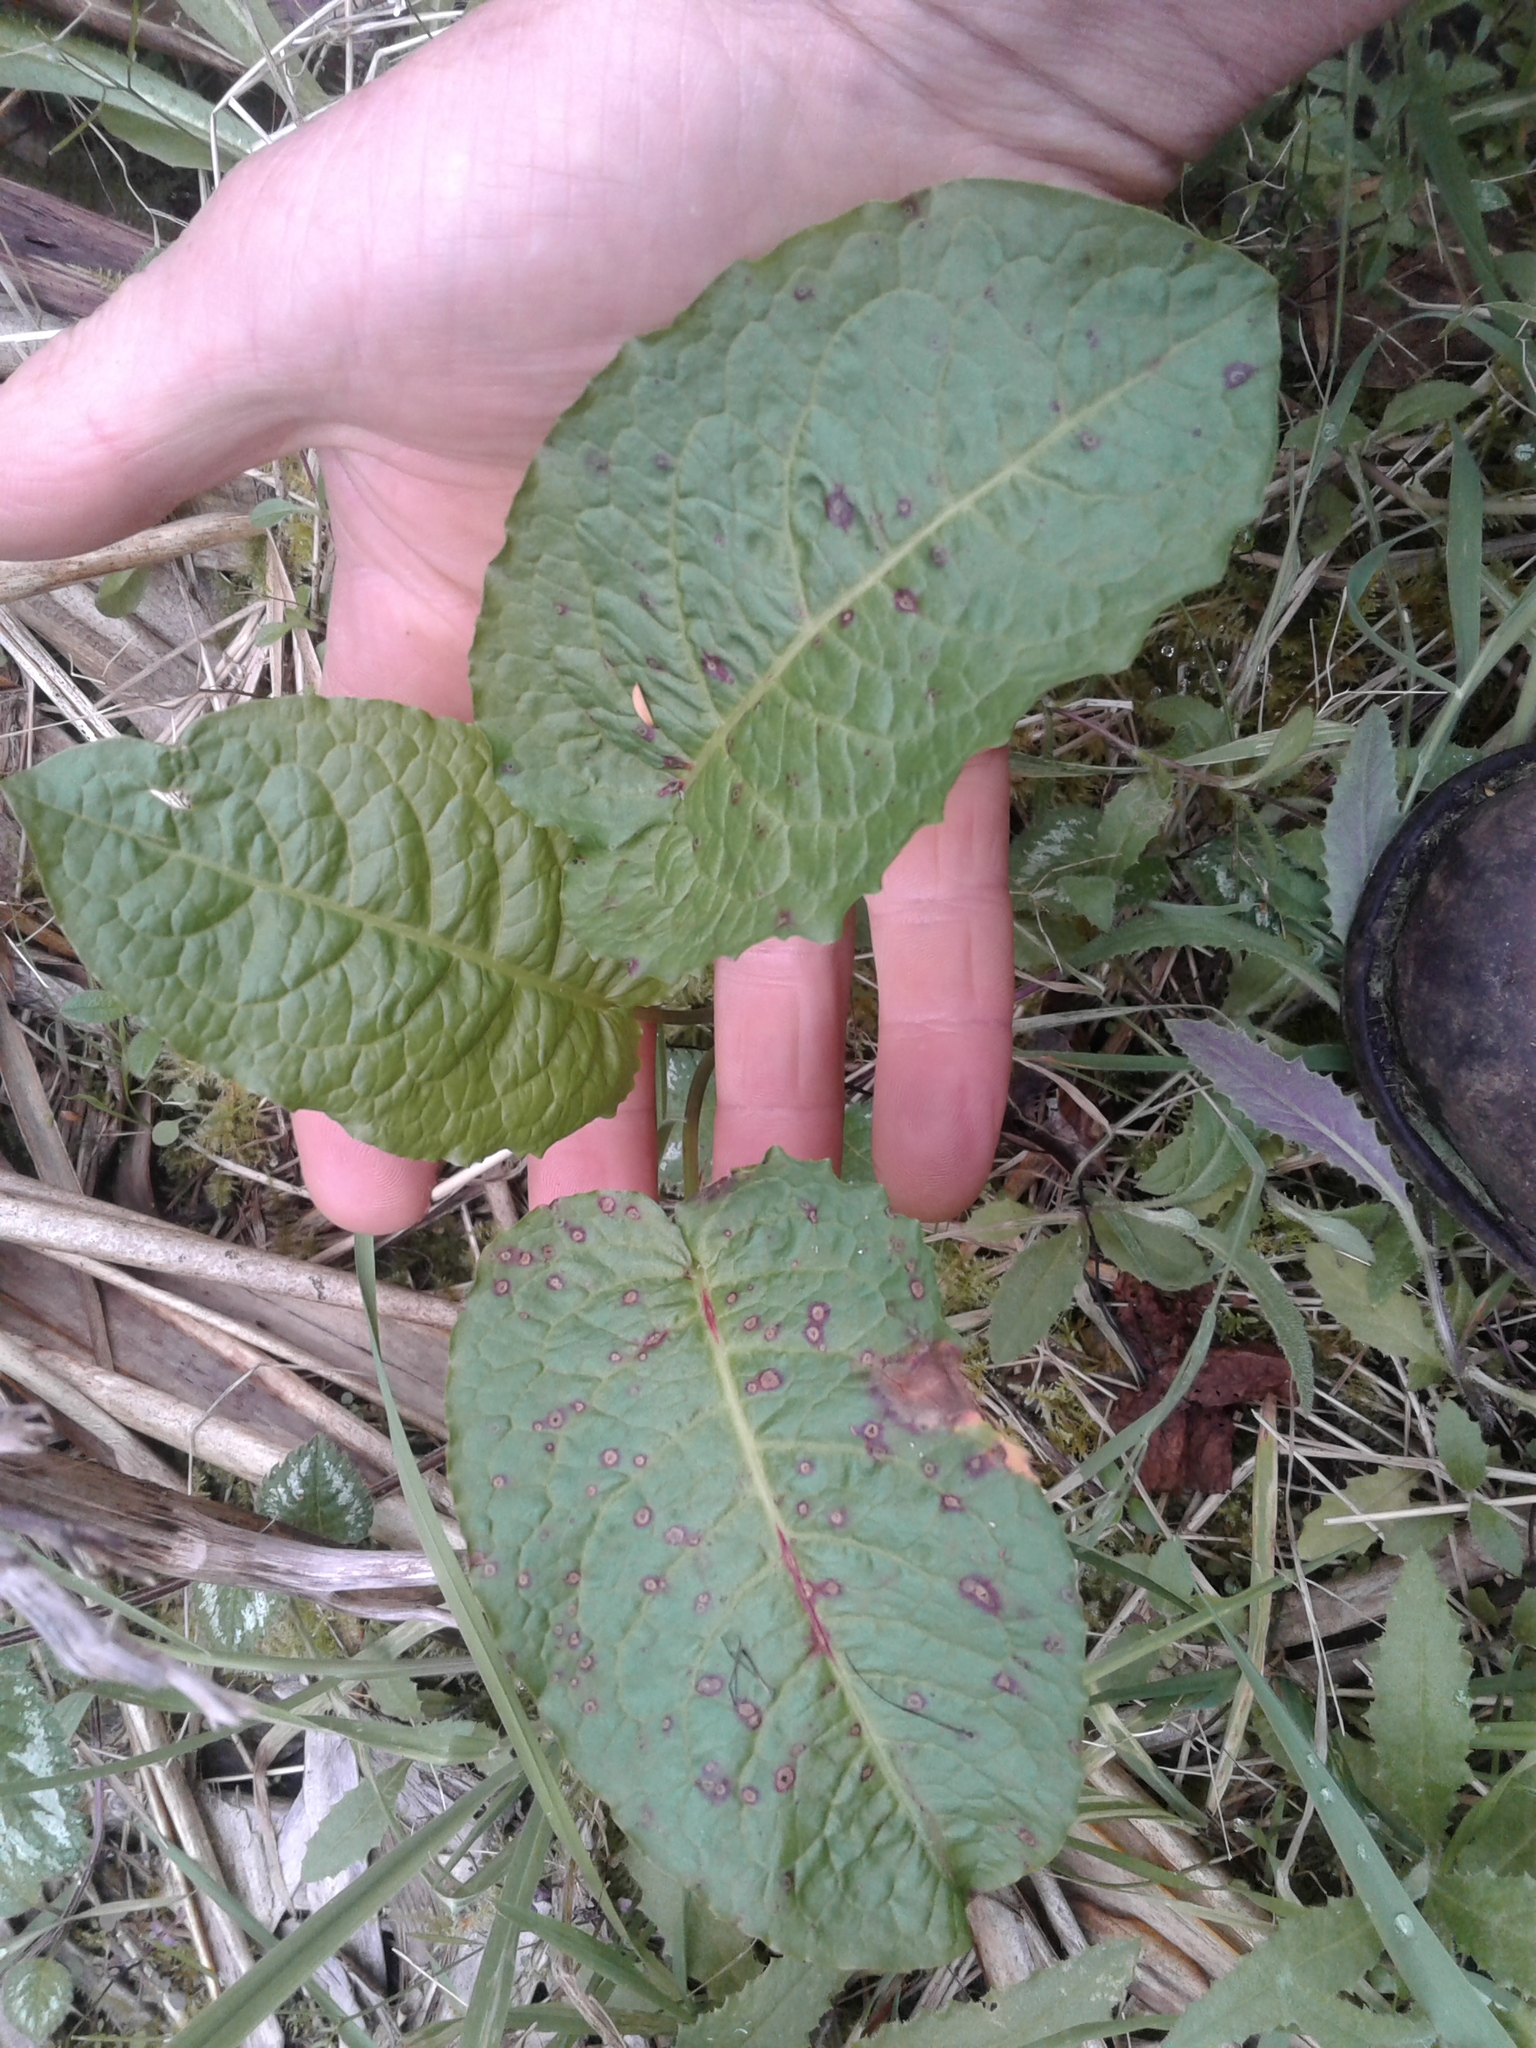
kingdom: Plantae
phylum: Tracheophyta
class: Magnoliopsida
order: Caryophyllales
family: Polygonaceae
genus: Rumex
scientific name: Rumex obtusifolius
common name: Bitter dock
